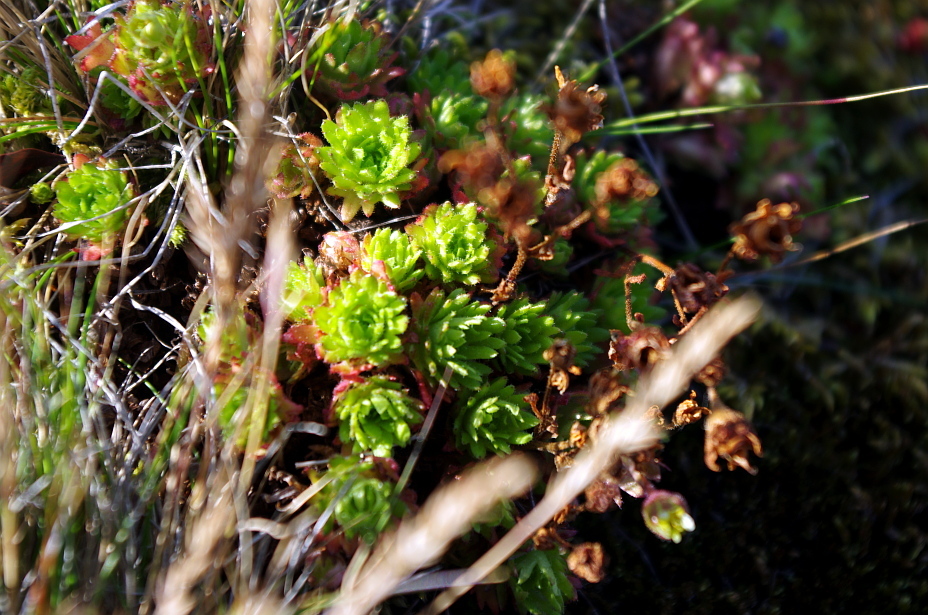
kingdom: Plantae
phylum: Tracheophyta
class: Magnoliopsida
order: Saxifragales
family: Saxifragaceae
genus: Saxifraga
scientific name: Saxifraga cespitosa
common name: Tufted saxifrage
